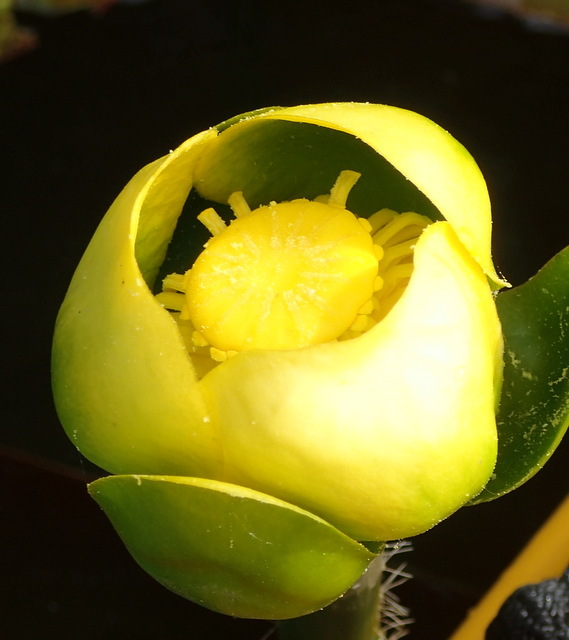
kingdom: Plantae
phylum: Tracheophyta
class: Magnoliopsida
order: Nymphaeales
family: Nymphaeaceae
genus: Nuphar
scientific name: Nuphar advena
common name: Spatter-dock
